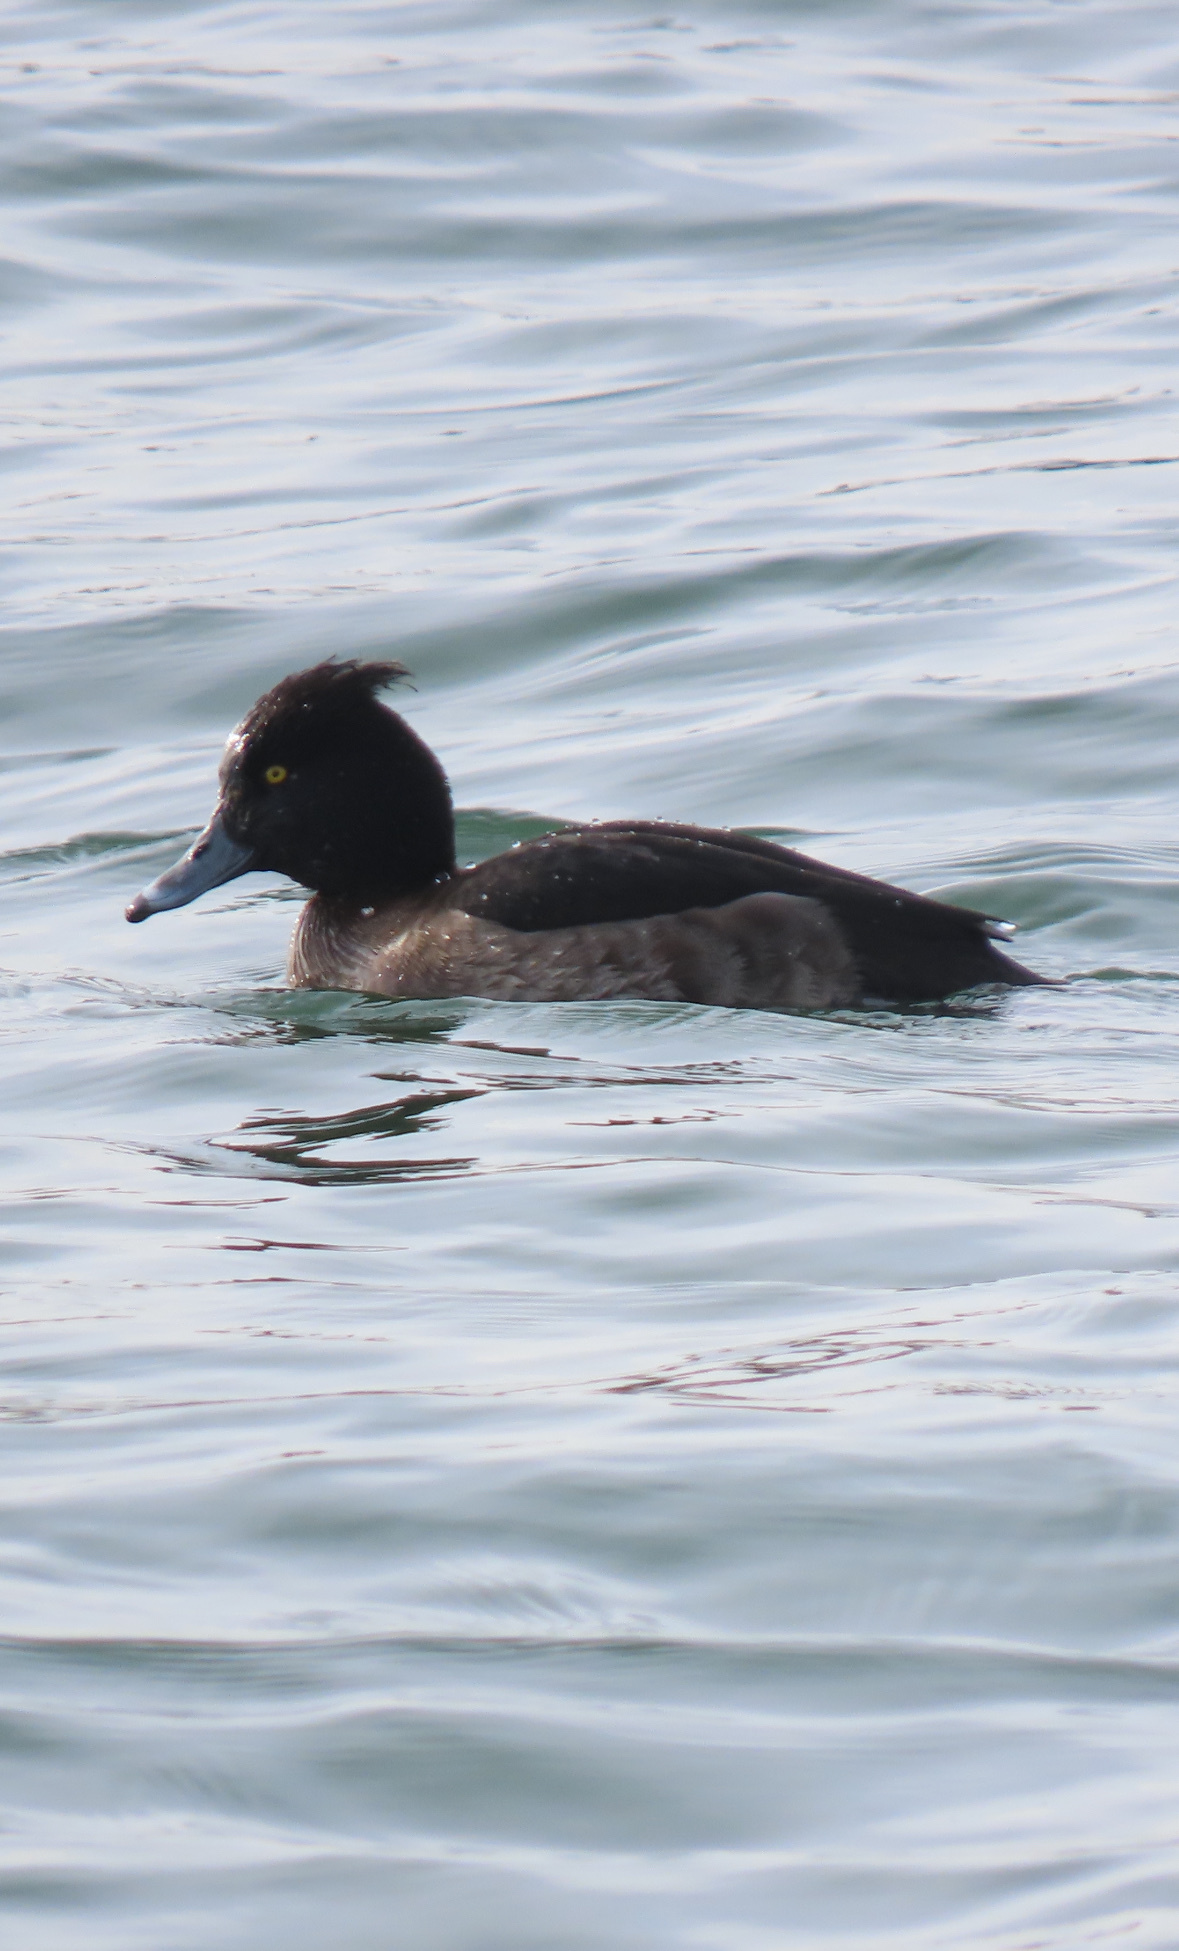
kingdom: Animalia
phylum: Chordata
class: Aves
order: Anseriformes
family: Anatidae
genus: Aythya
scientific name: Aythya fuligula
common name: Tufted duck
